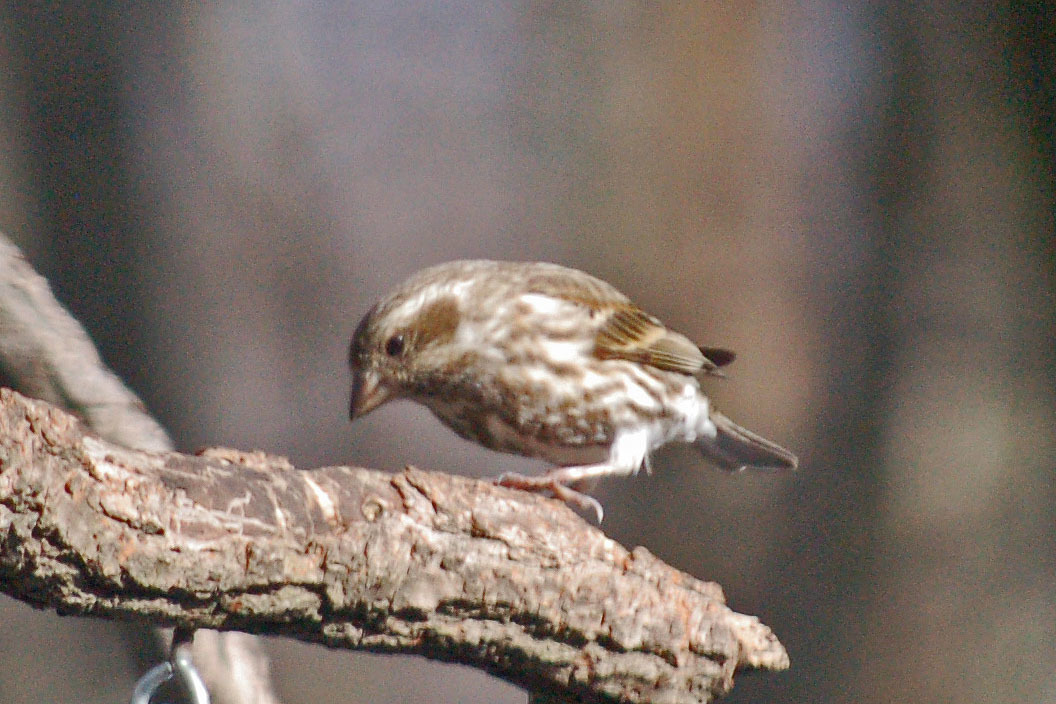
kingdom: Animalia
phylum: Chordata
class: Aves
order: Passeriformes
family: Fringillidae
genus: Haemorhous
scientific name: Haemorhous purpureus
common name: Purple finch
